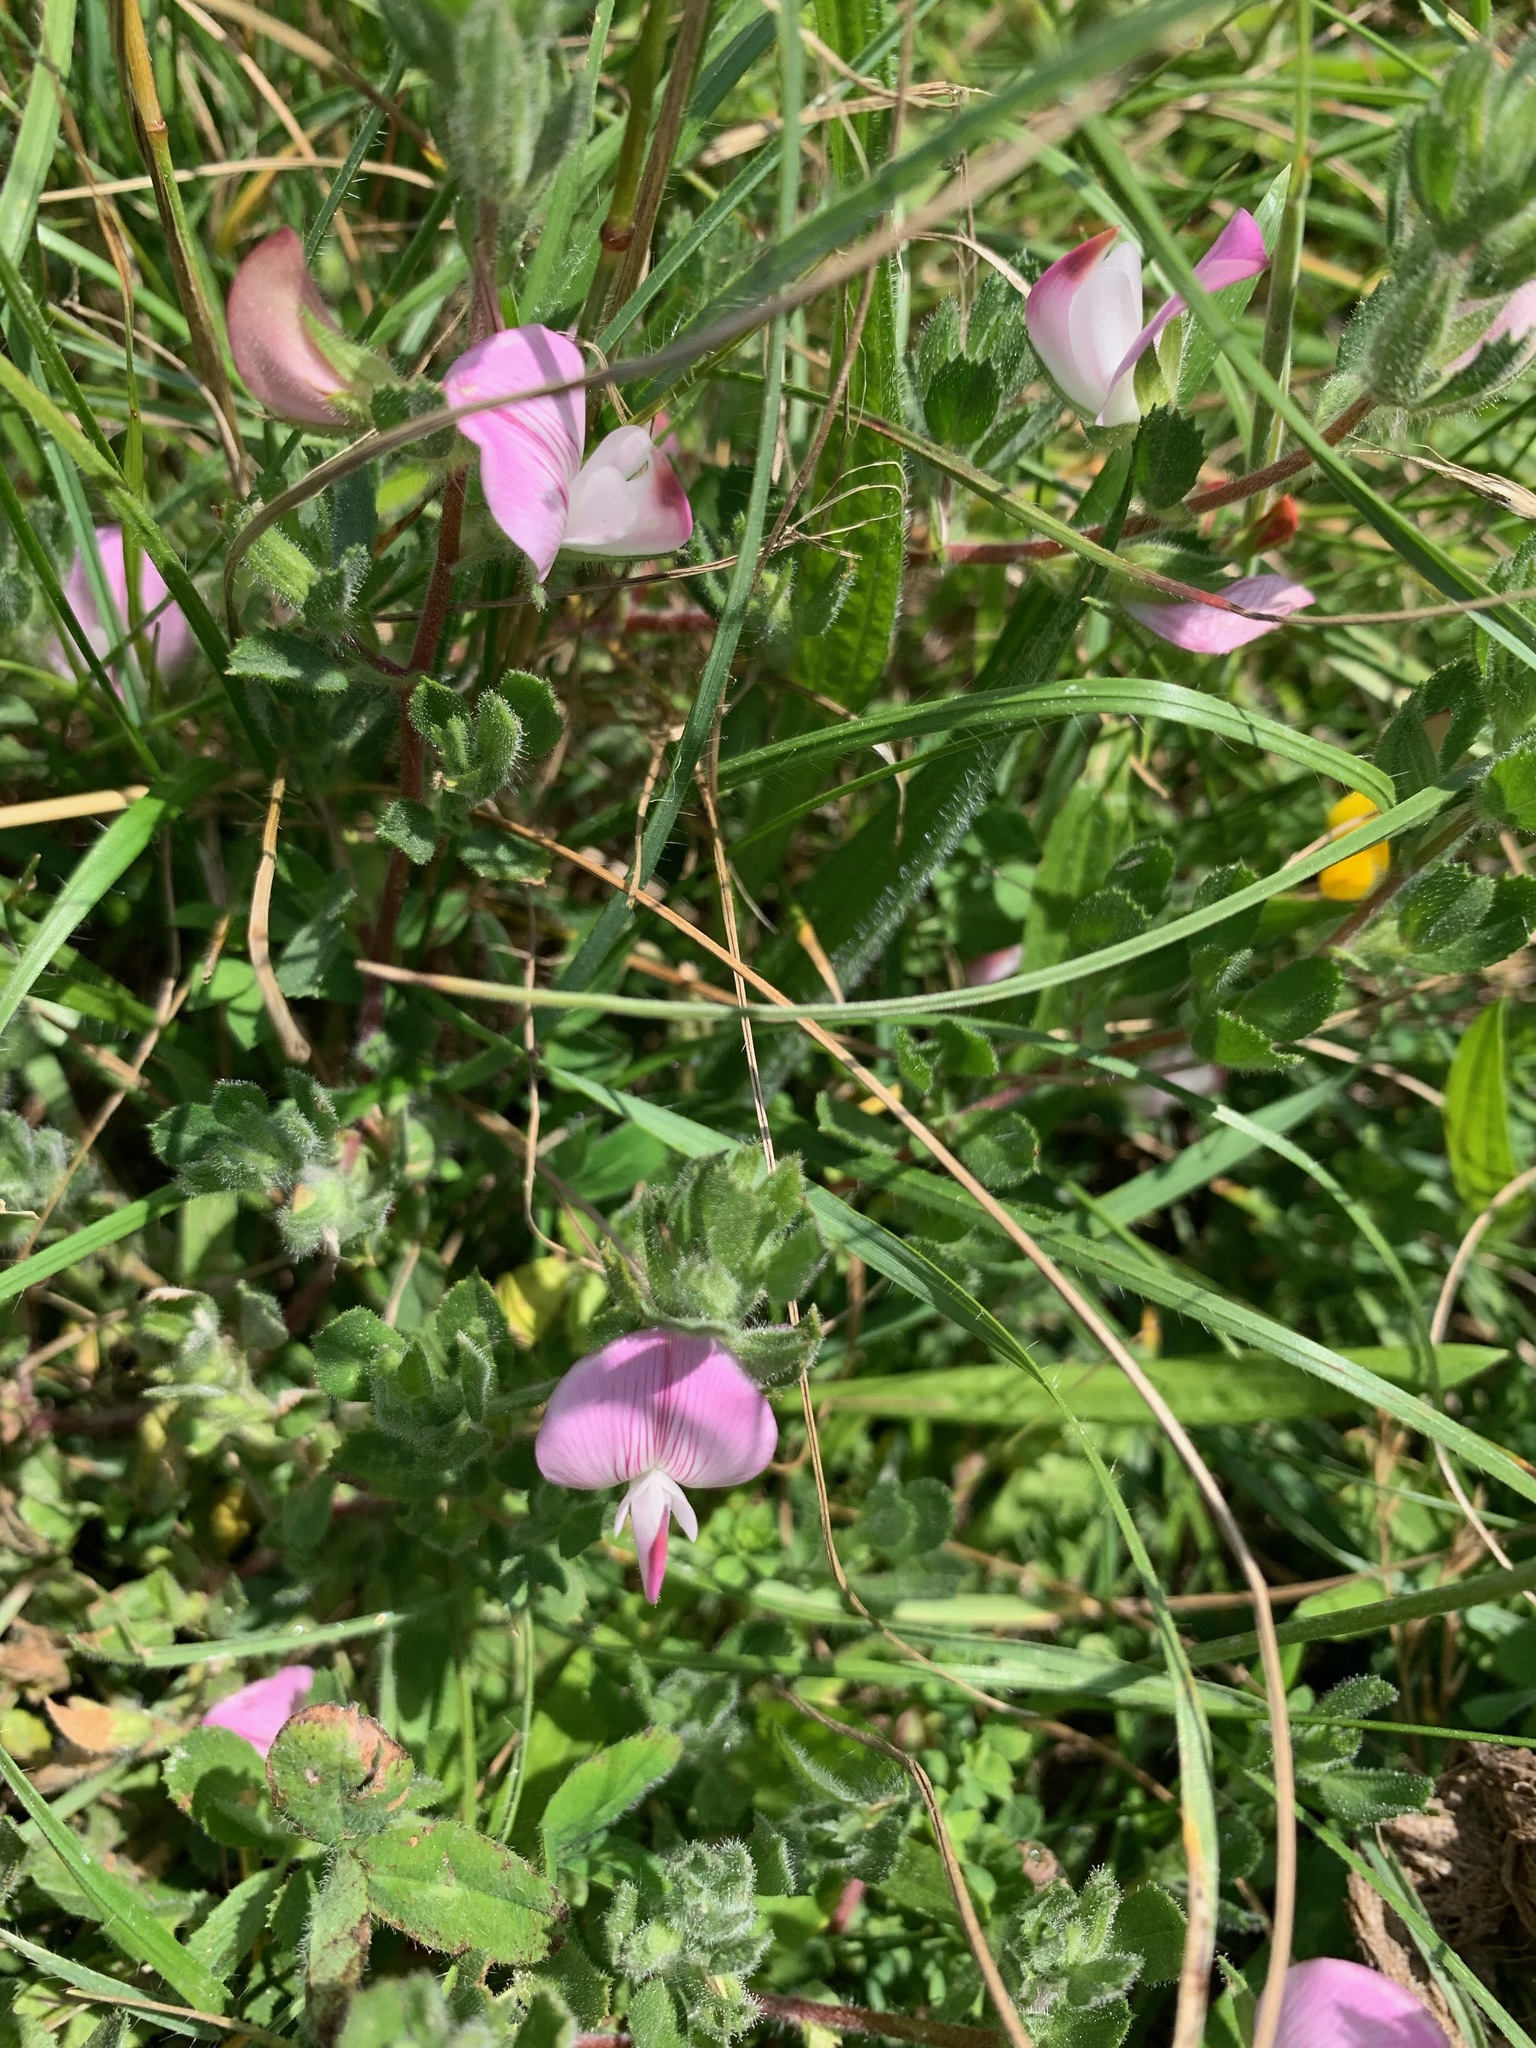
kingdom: Plantae
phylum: Tracheophyta
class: Magnoliopsida
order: Fabales
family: Fabaceae
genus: Ononis
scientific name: Ononis spinosa
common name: Spiny restharrow
